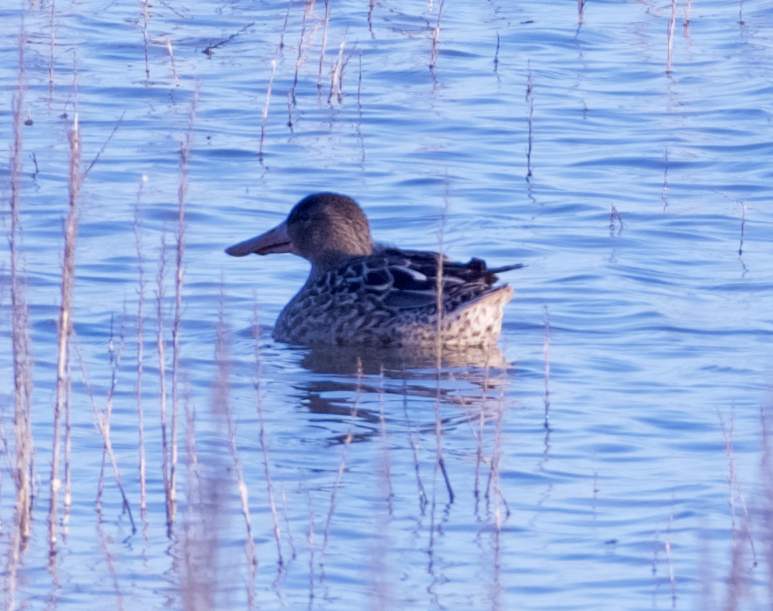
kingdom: Animalia
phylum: Chordata
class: Aves
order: Anseriformes
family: Anatidae
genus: Spatula
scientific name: Spatula clypeata
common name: Northern shoveler
